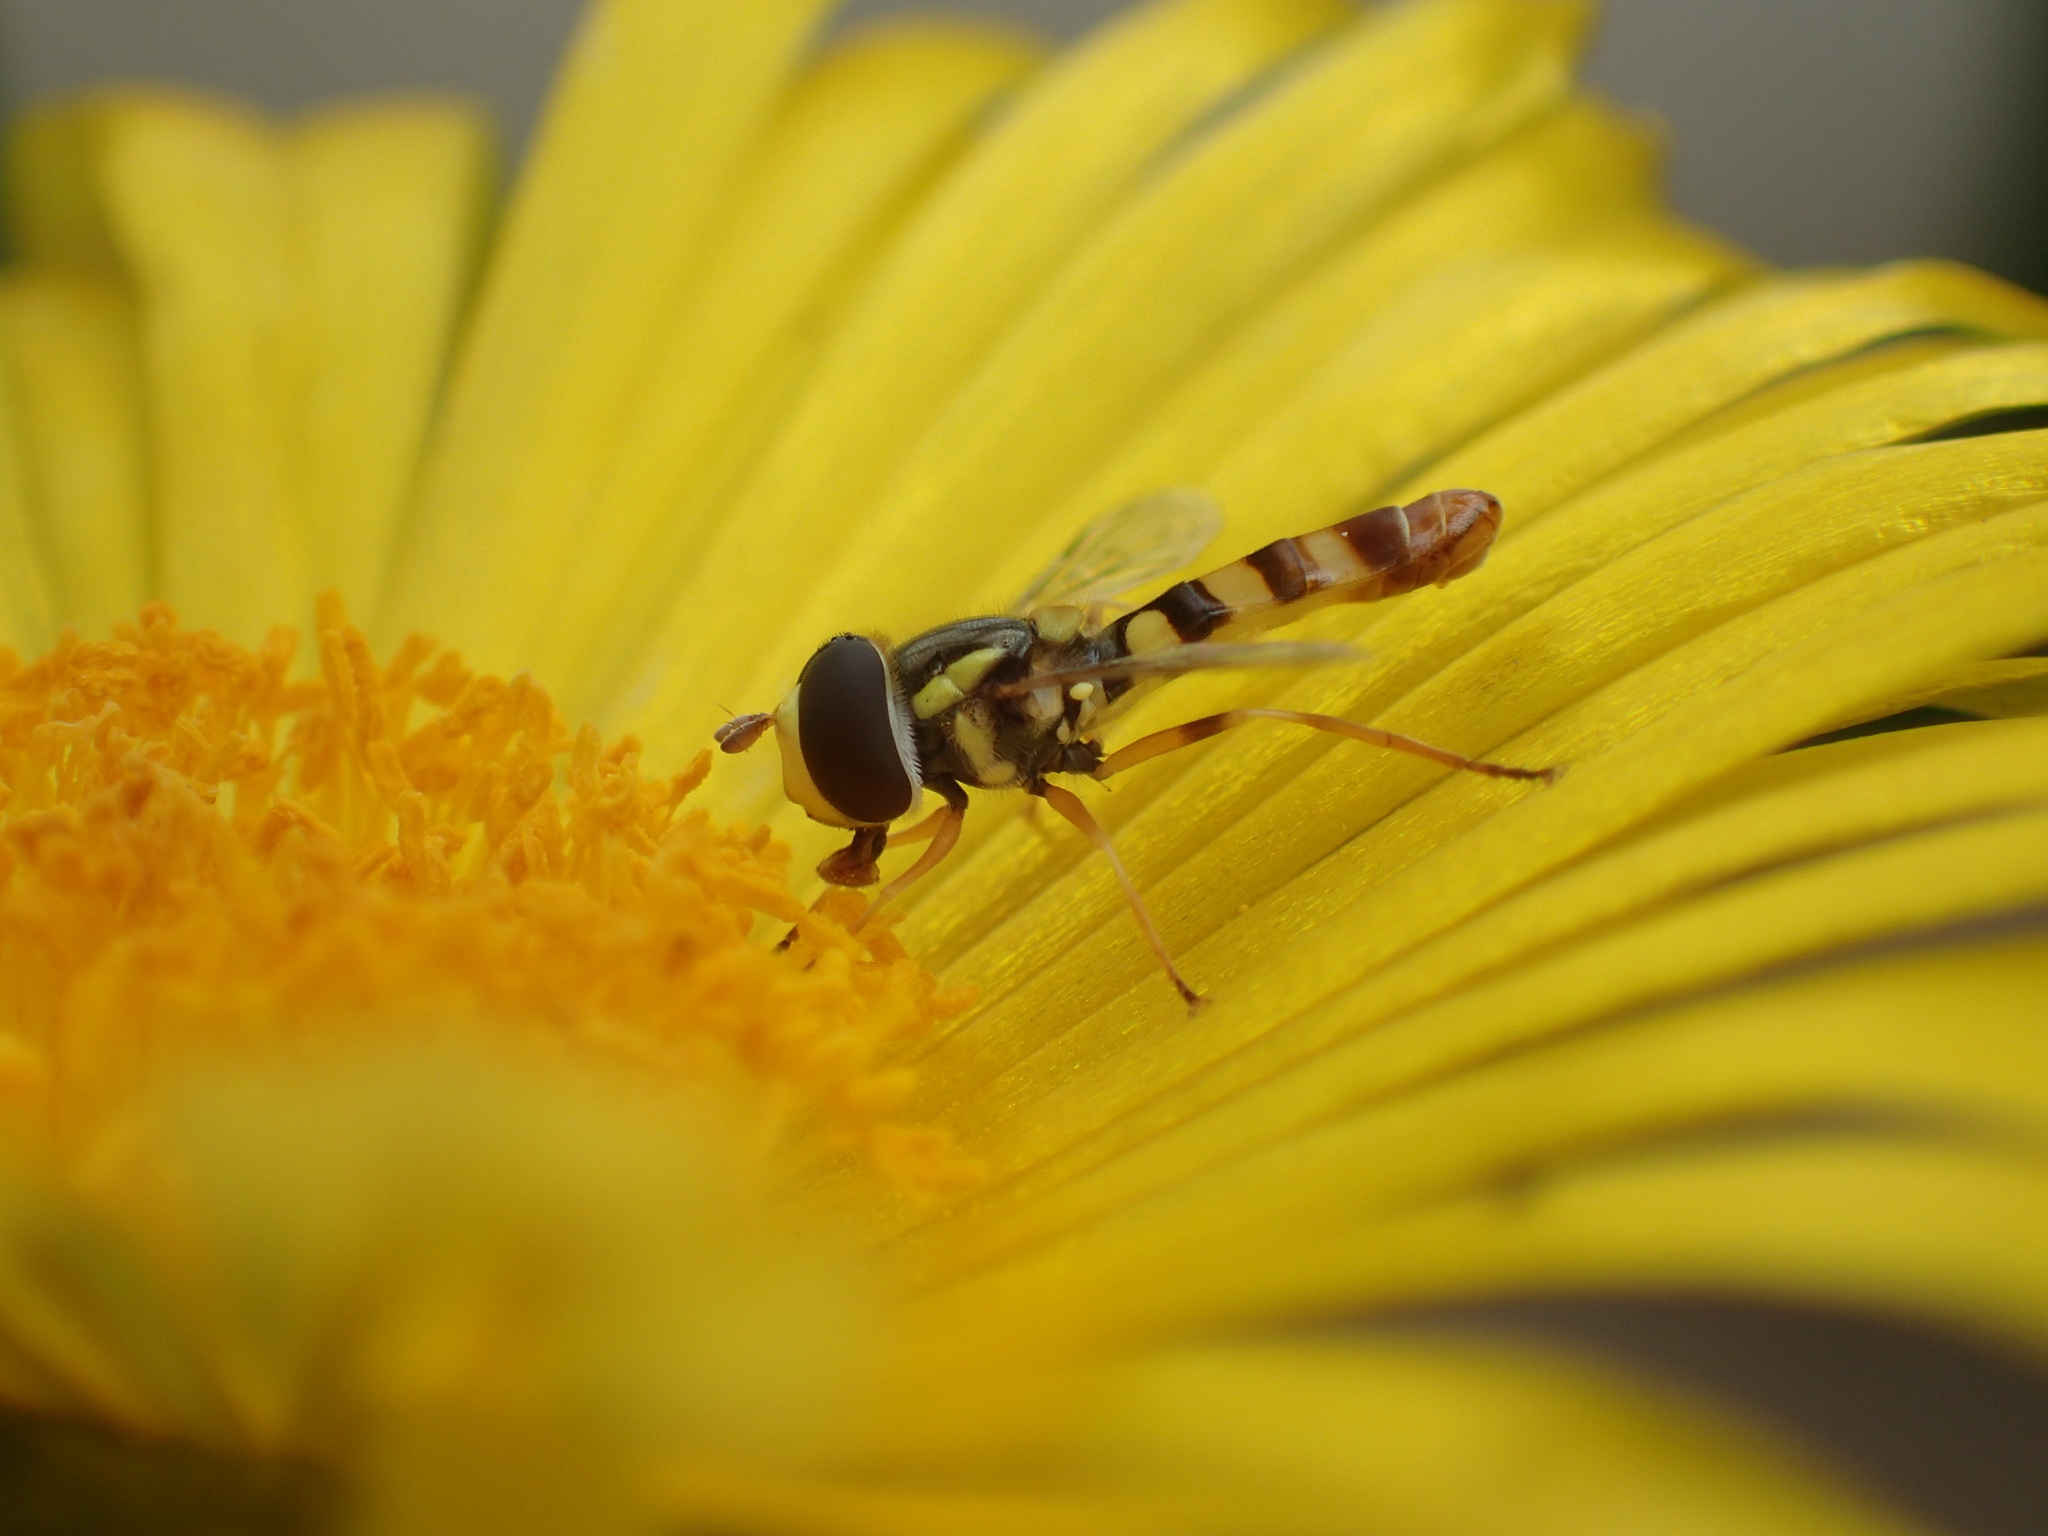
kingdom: Animalia
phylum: Arthropoda
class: Insecta
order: Diptera
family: Syrphidae
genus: Ischiodon
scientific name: Ischiodon aegyptius
